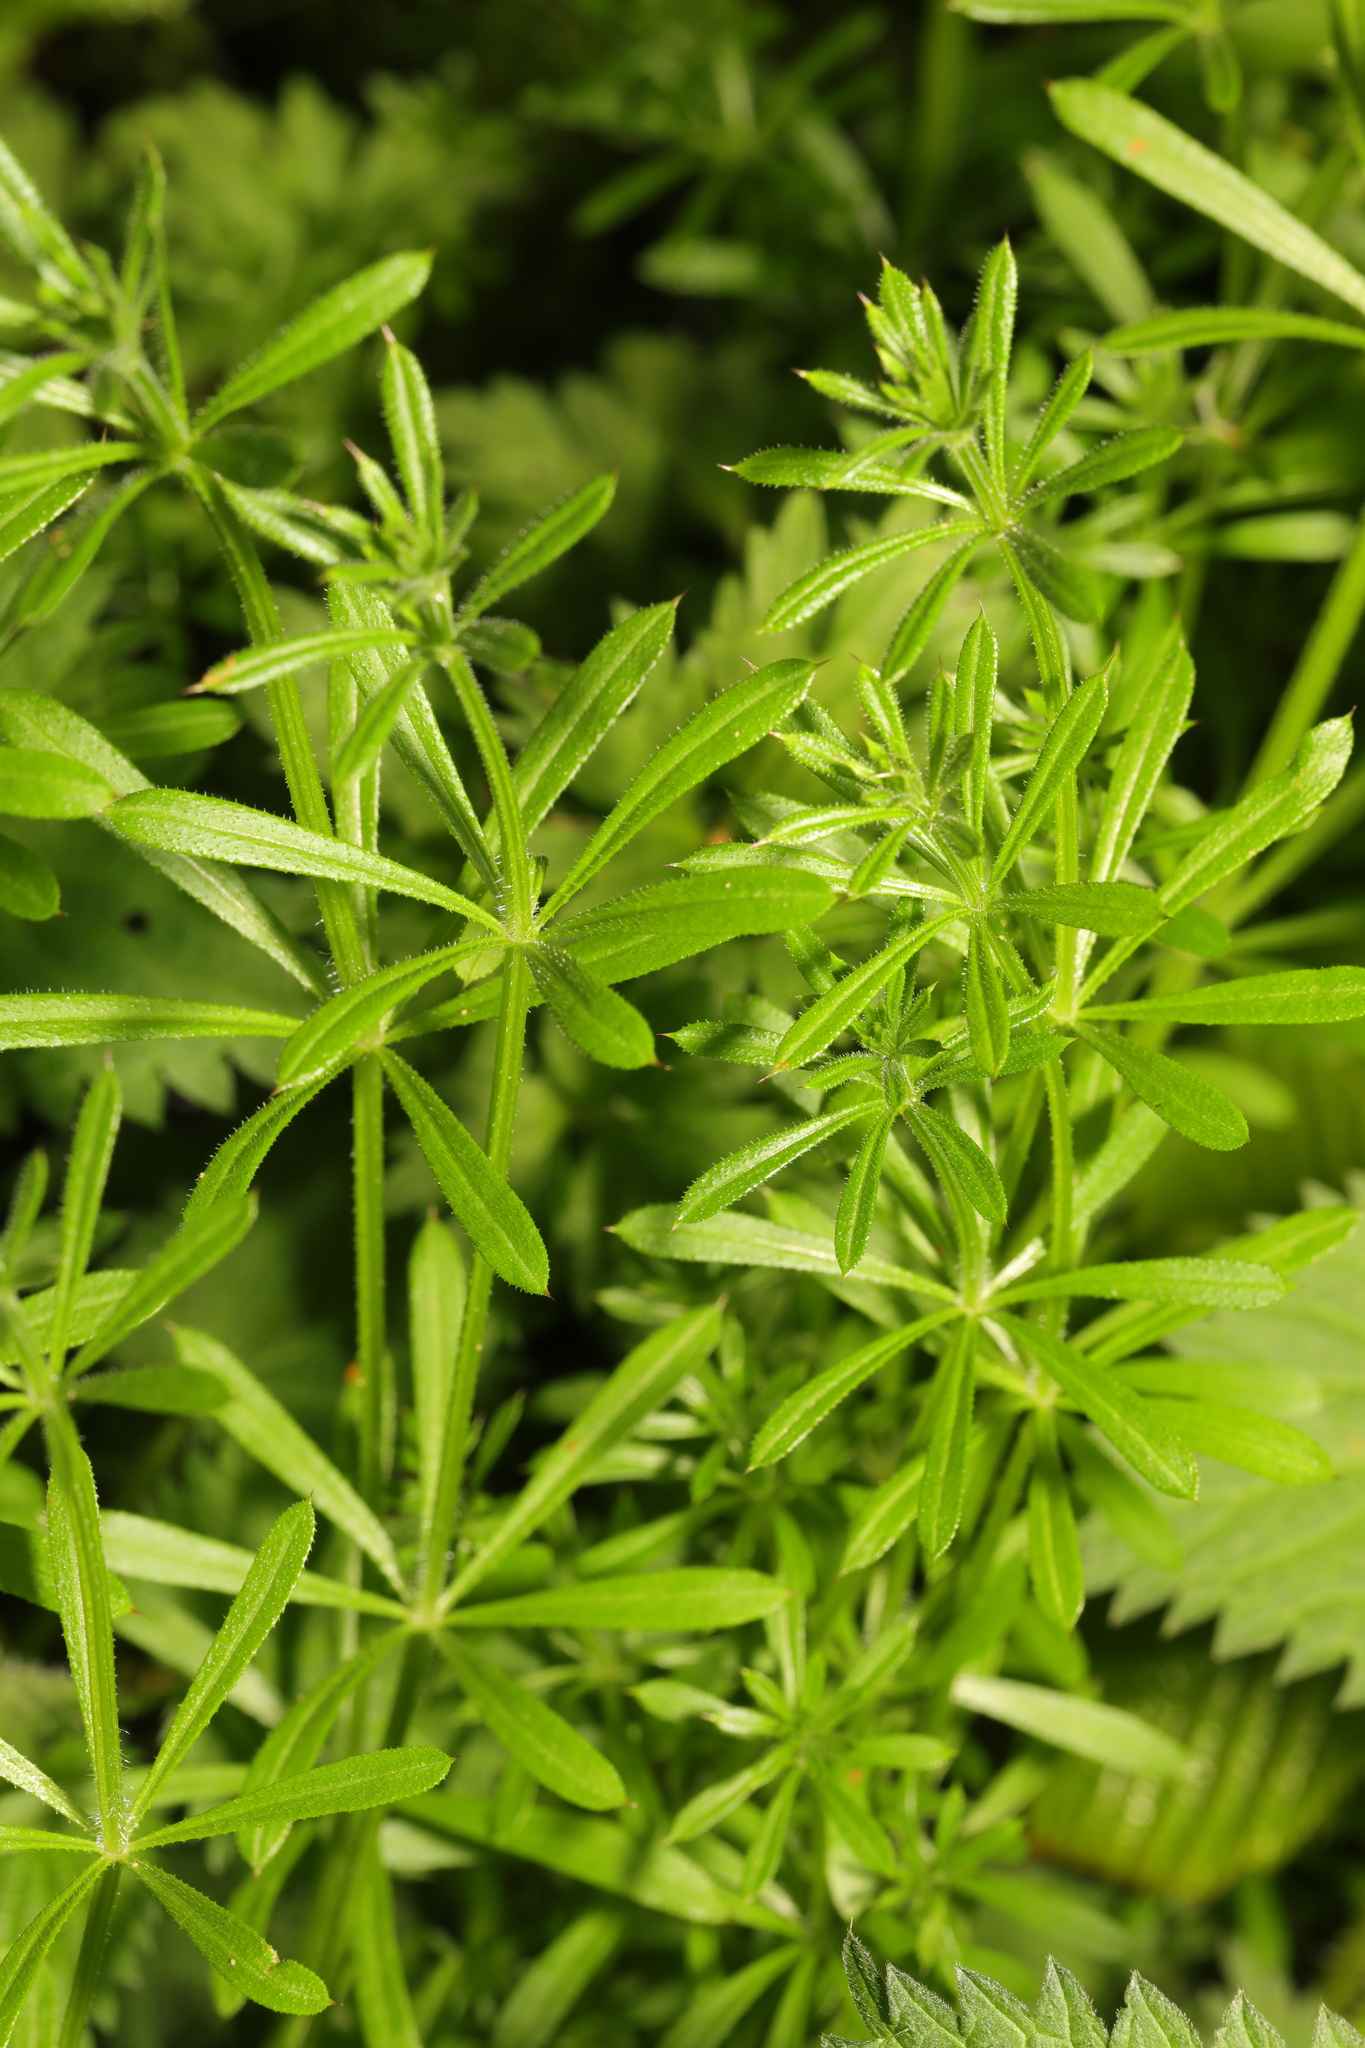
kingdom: Plantae
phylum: Tracheophyta
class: Magnoliopsida
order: Gentianales
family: Rubiaceae
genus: Galium
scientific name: Galium aparine
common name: Cleavers
